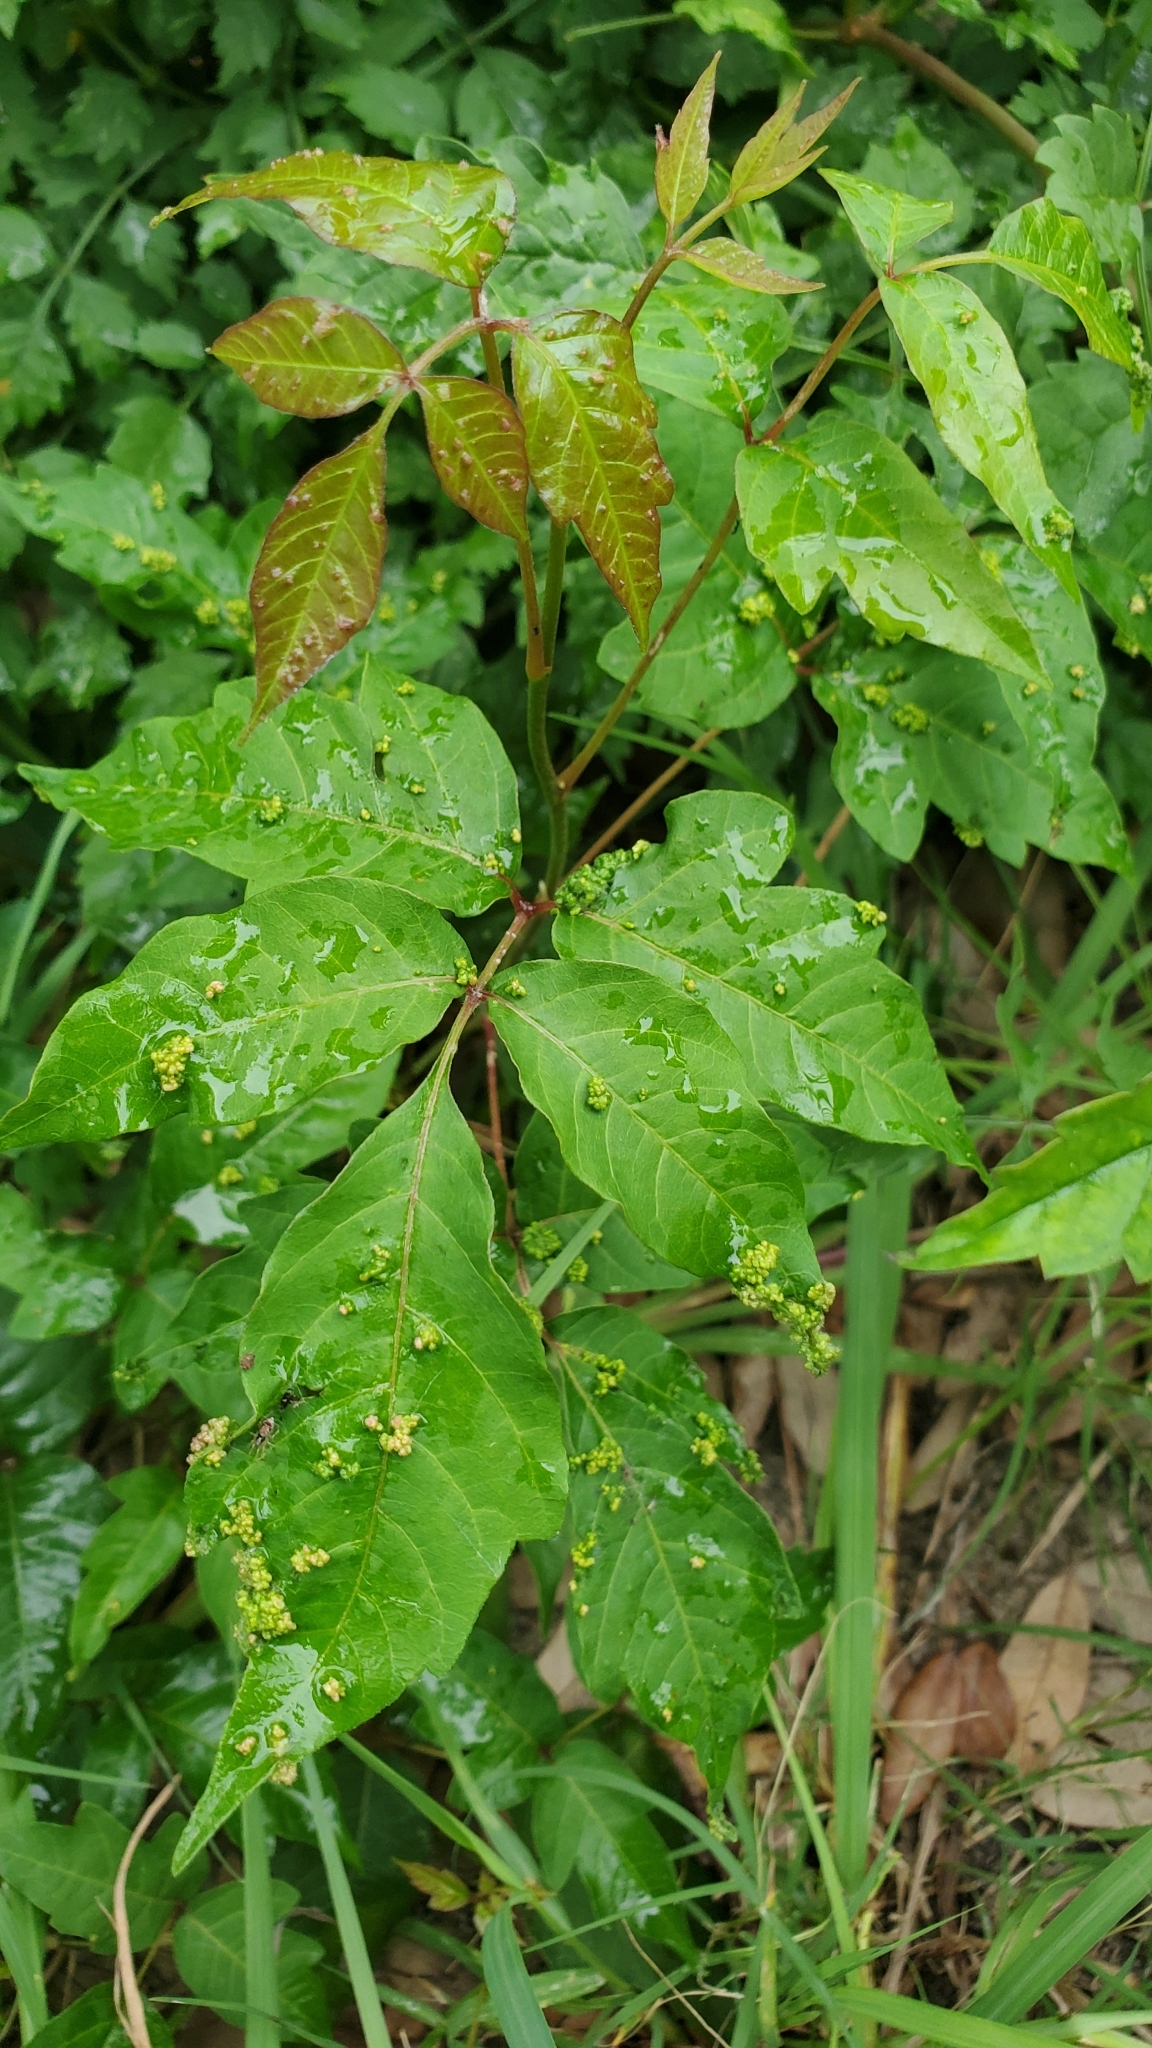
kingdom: Plantae
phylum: Tracheophyta
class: Magnoliopsida
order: Sapindales
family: Anacardiaceae
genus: Toxicodendron
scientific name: Toxicodendron radicans
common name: Poison ivy
